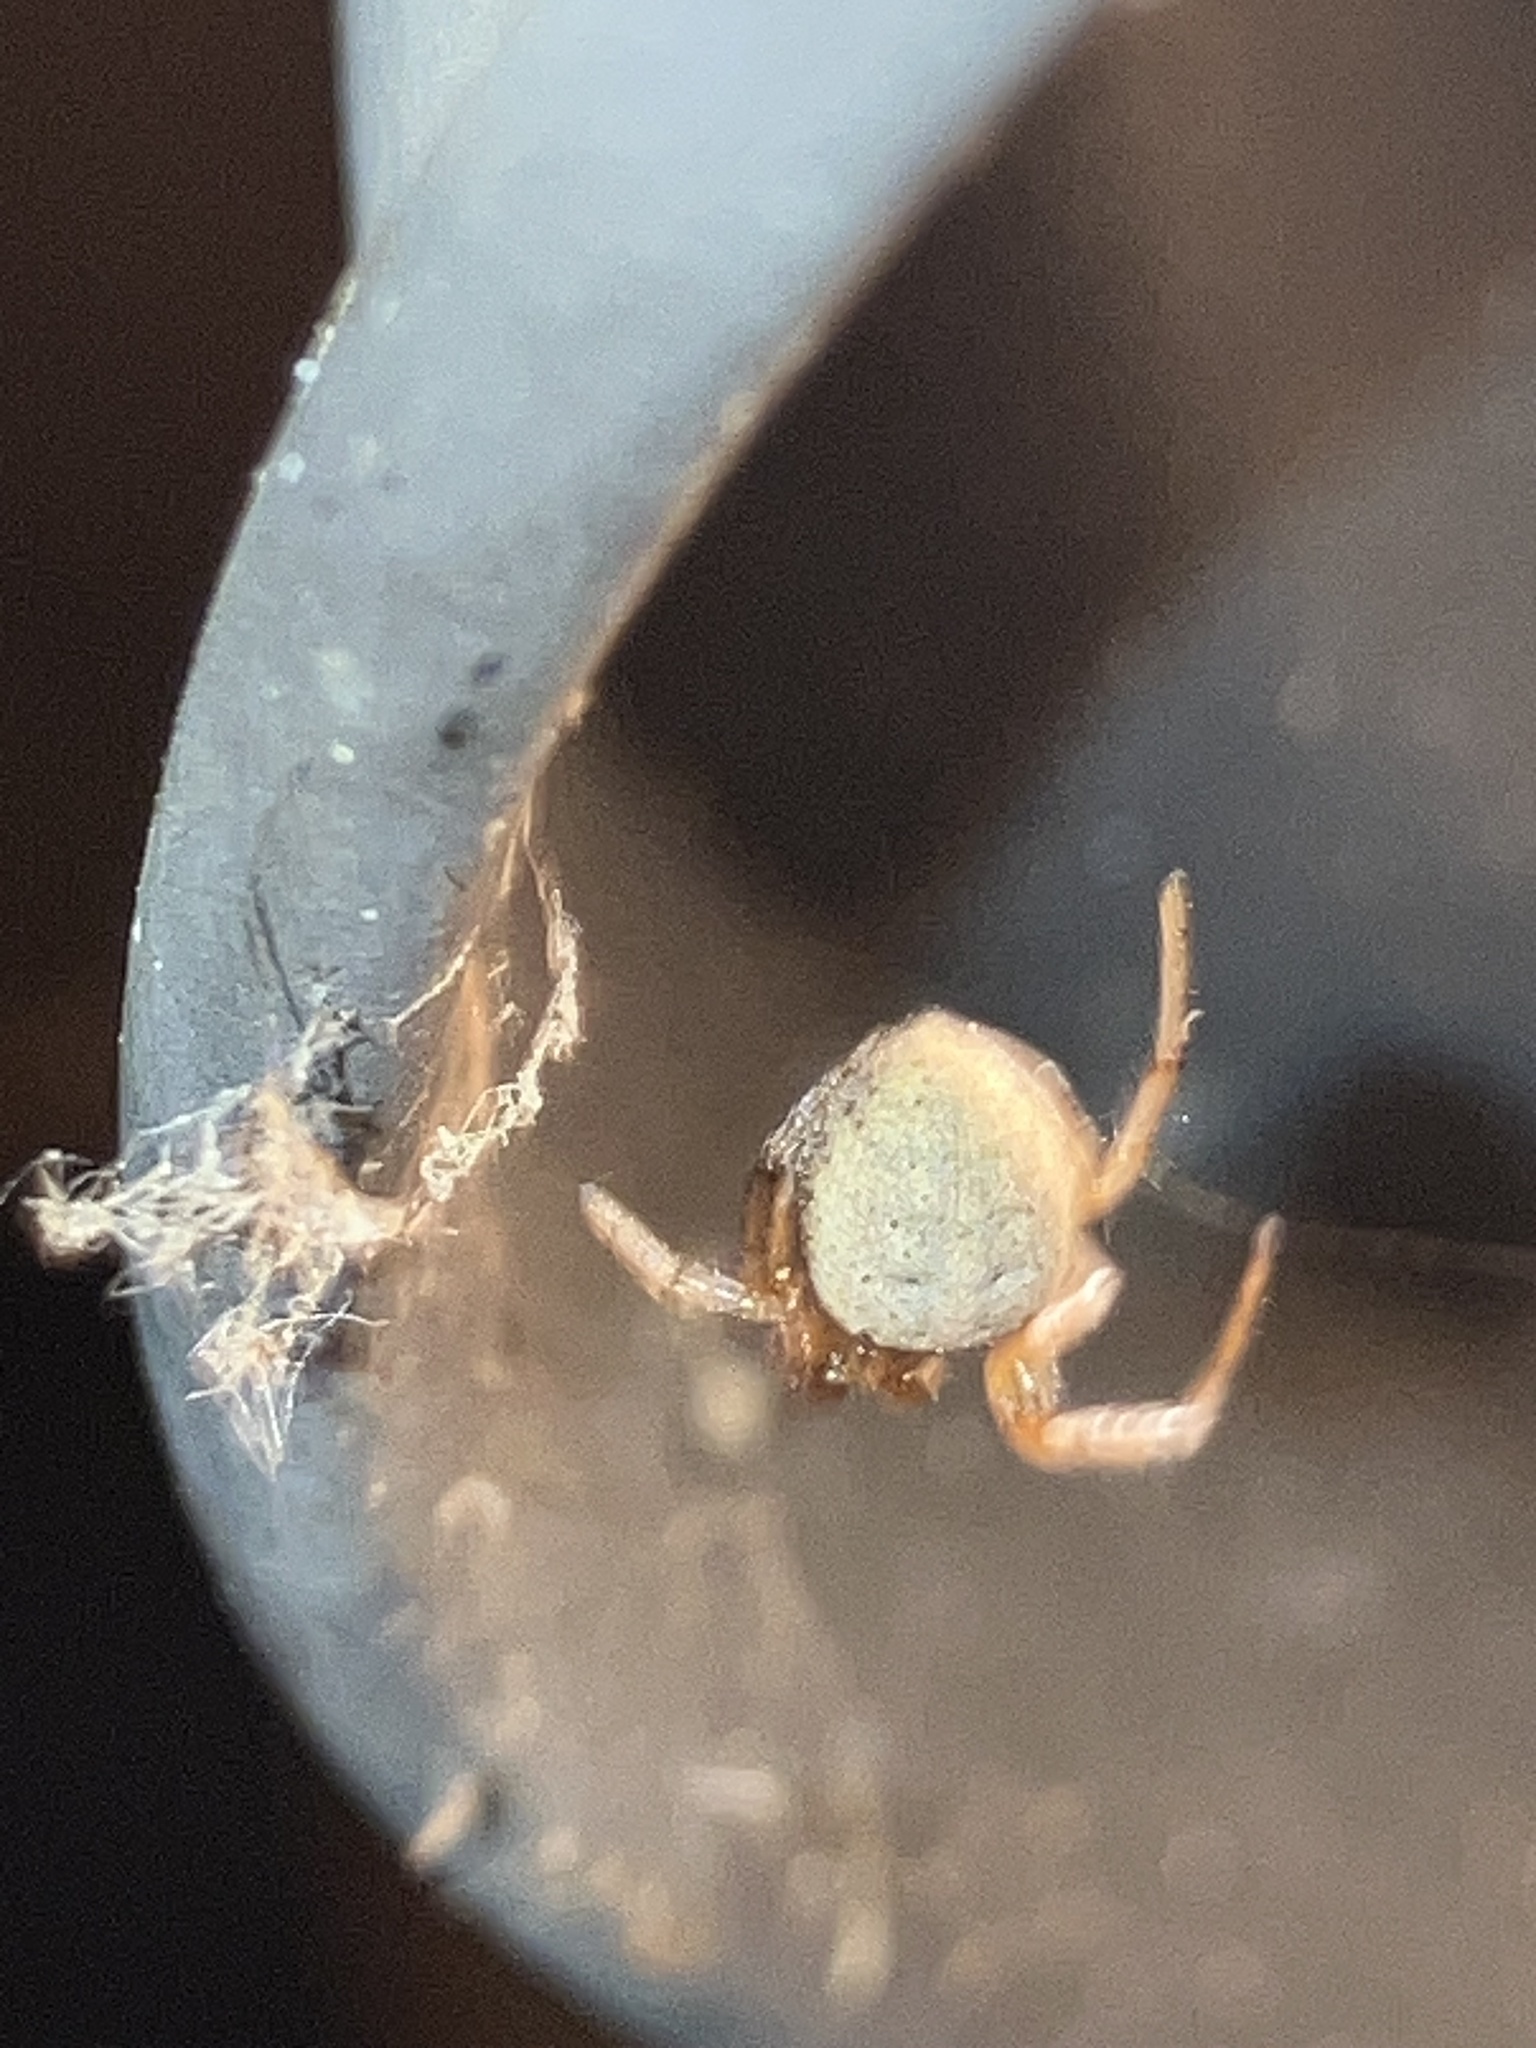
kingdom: Animalia
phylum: Arthropoda
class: Arachnida
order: Araneae
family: Araneidae
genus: Metazygia
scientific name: Metazygia zilloides
